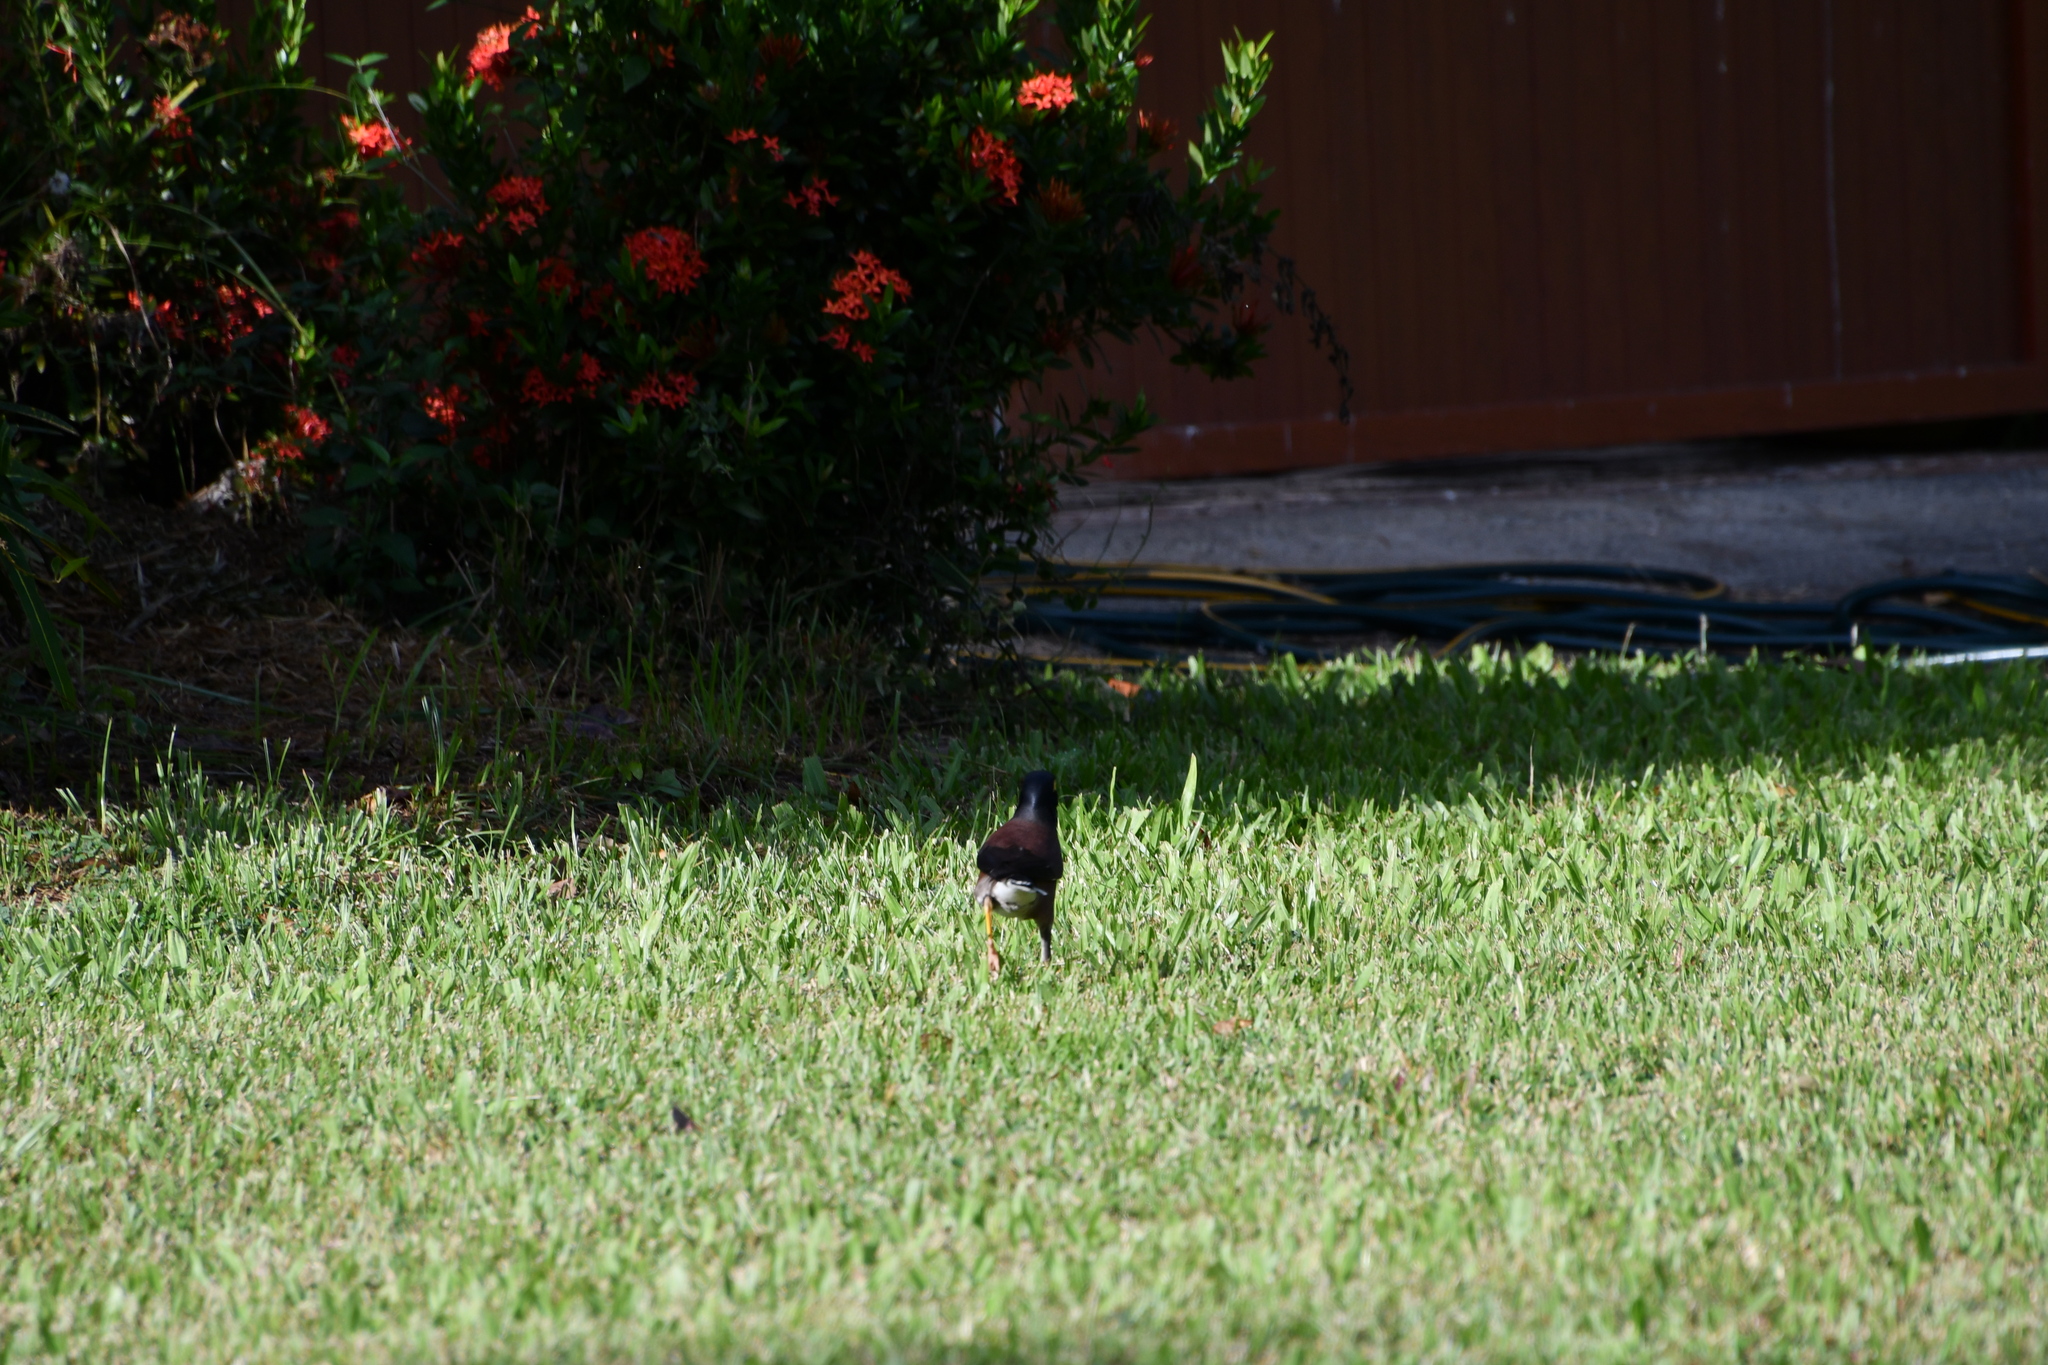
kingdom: Animalia
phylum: Chordata
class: Aves
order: Passeriformes
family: Sturnidae
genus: Acridotheres
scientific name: Acridotheres tristis
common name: Common myna
